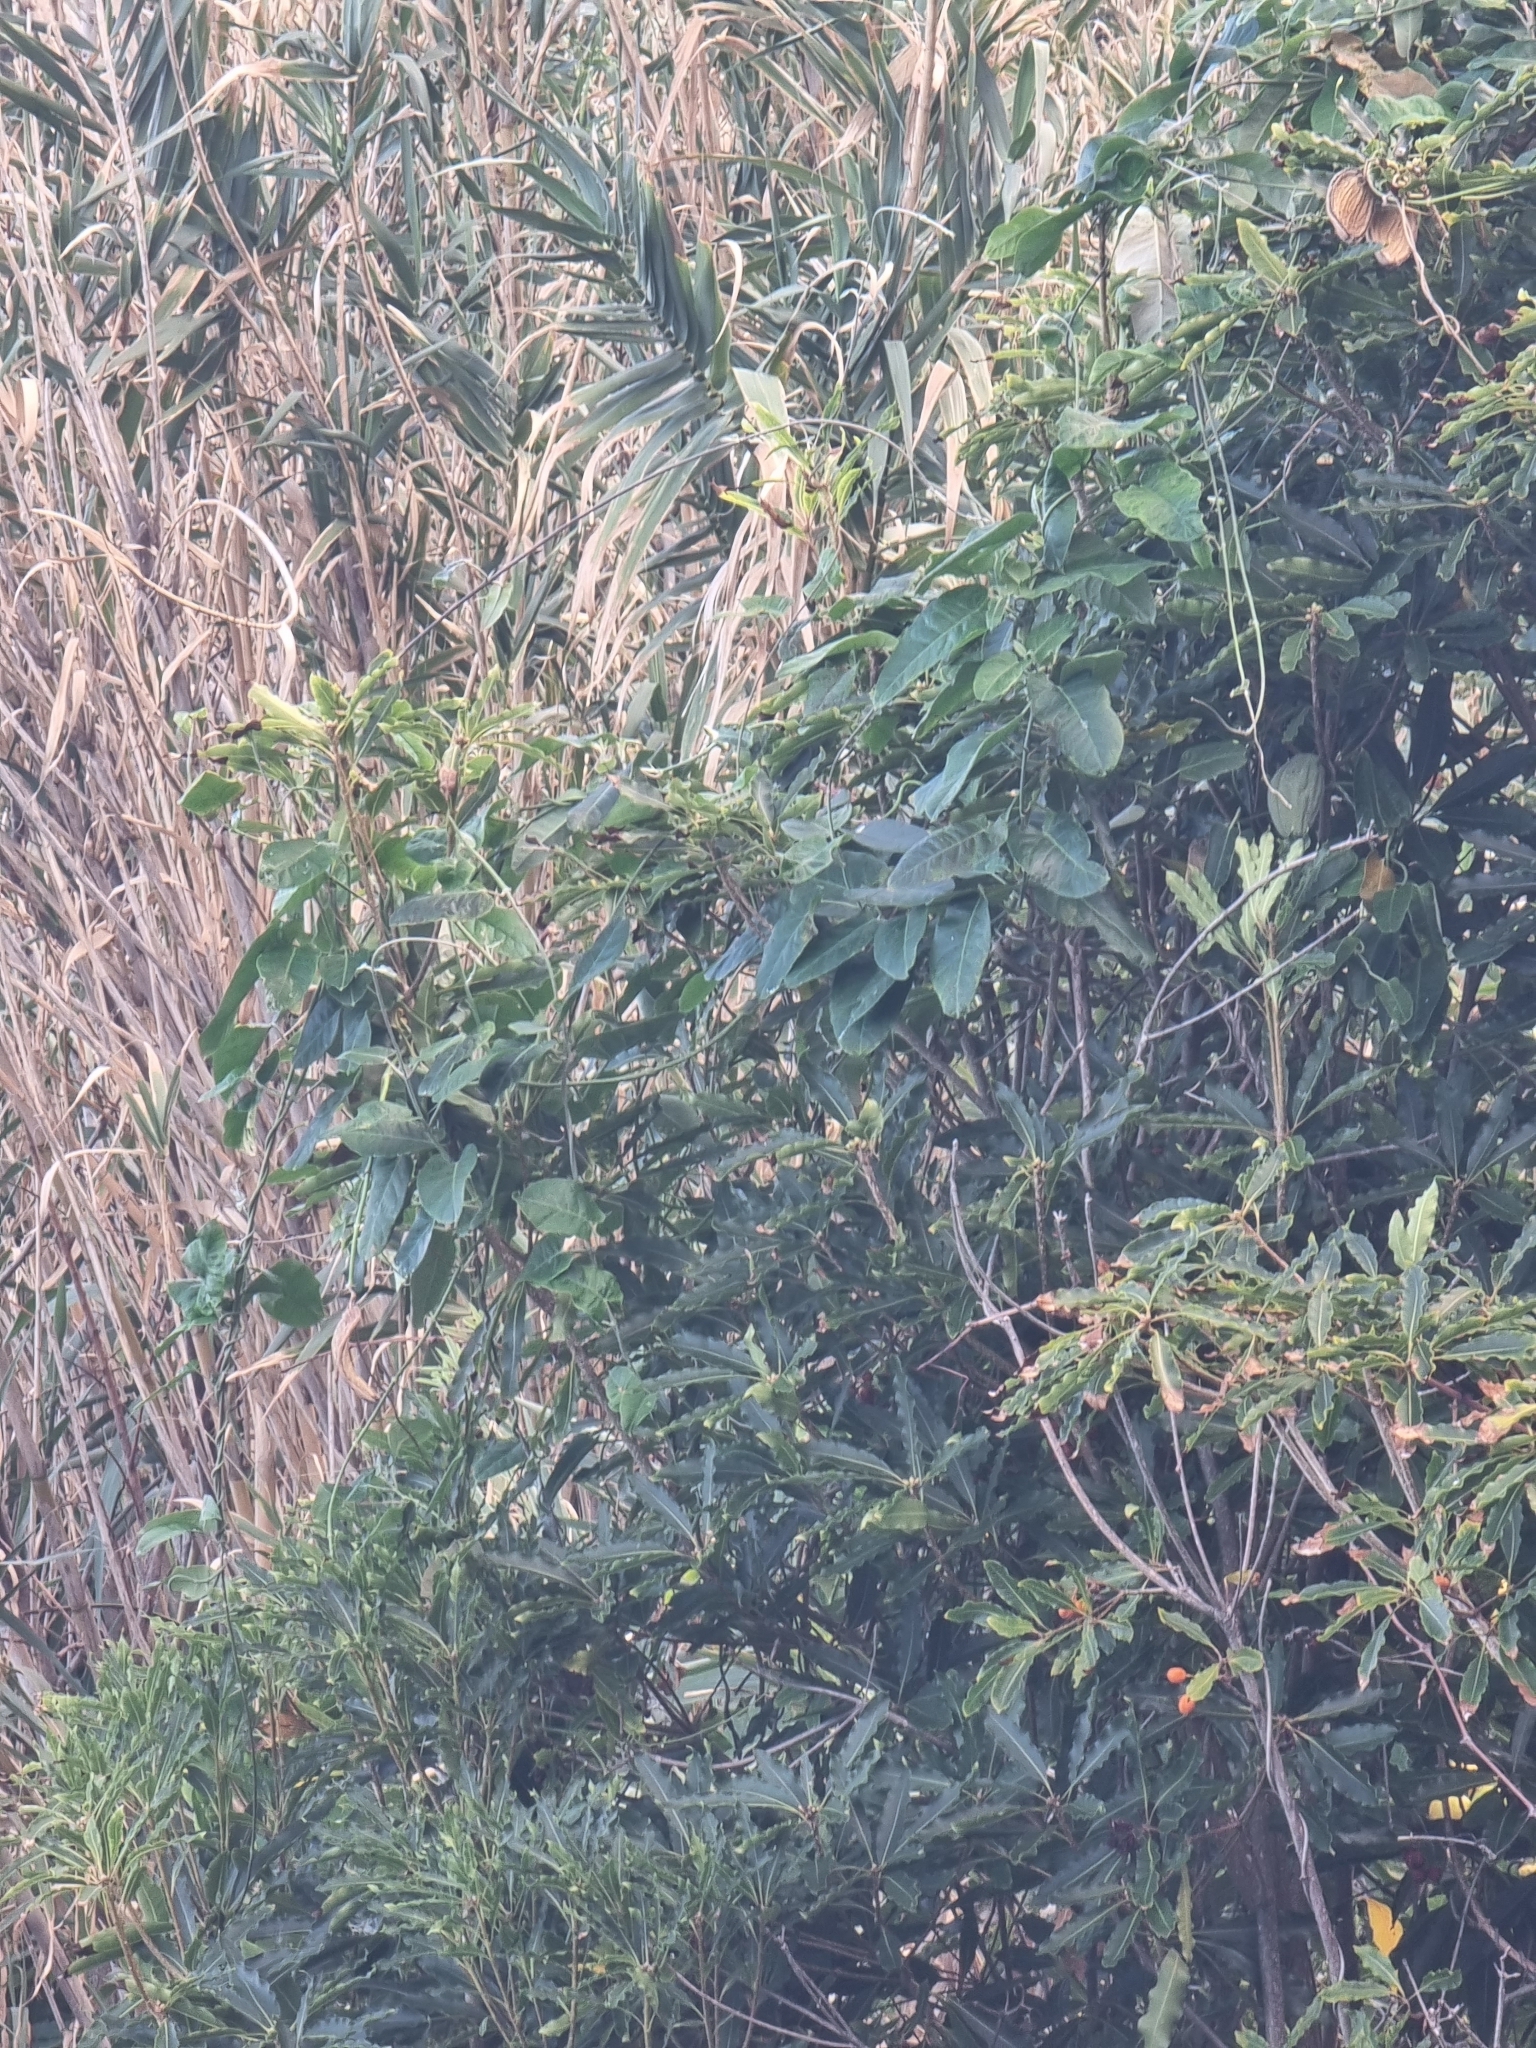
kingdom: Plantae
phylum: Tracheophyta
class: Magnoliopsida
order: Gentianales
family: Apocynaceae
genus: Araujia
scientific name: Araujia sericifera
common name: White bladderflower
